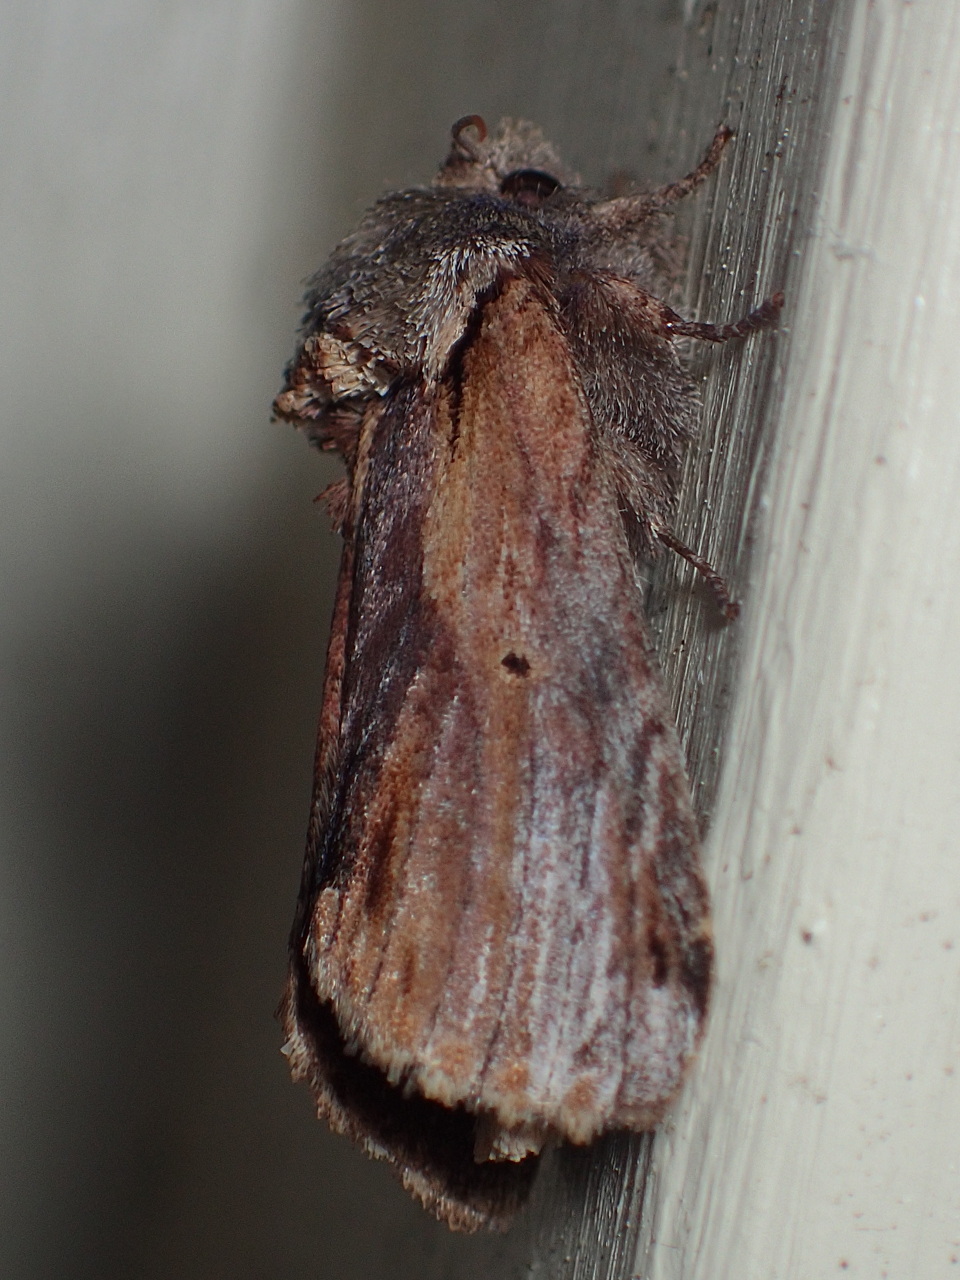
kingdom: Animalia
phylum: Arthropoda
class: Insecta
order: Lepidoptera
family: Notodontidae
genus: Schizura
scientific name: Schizura
